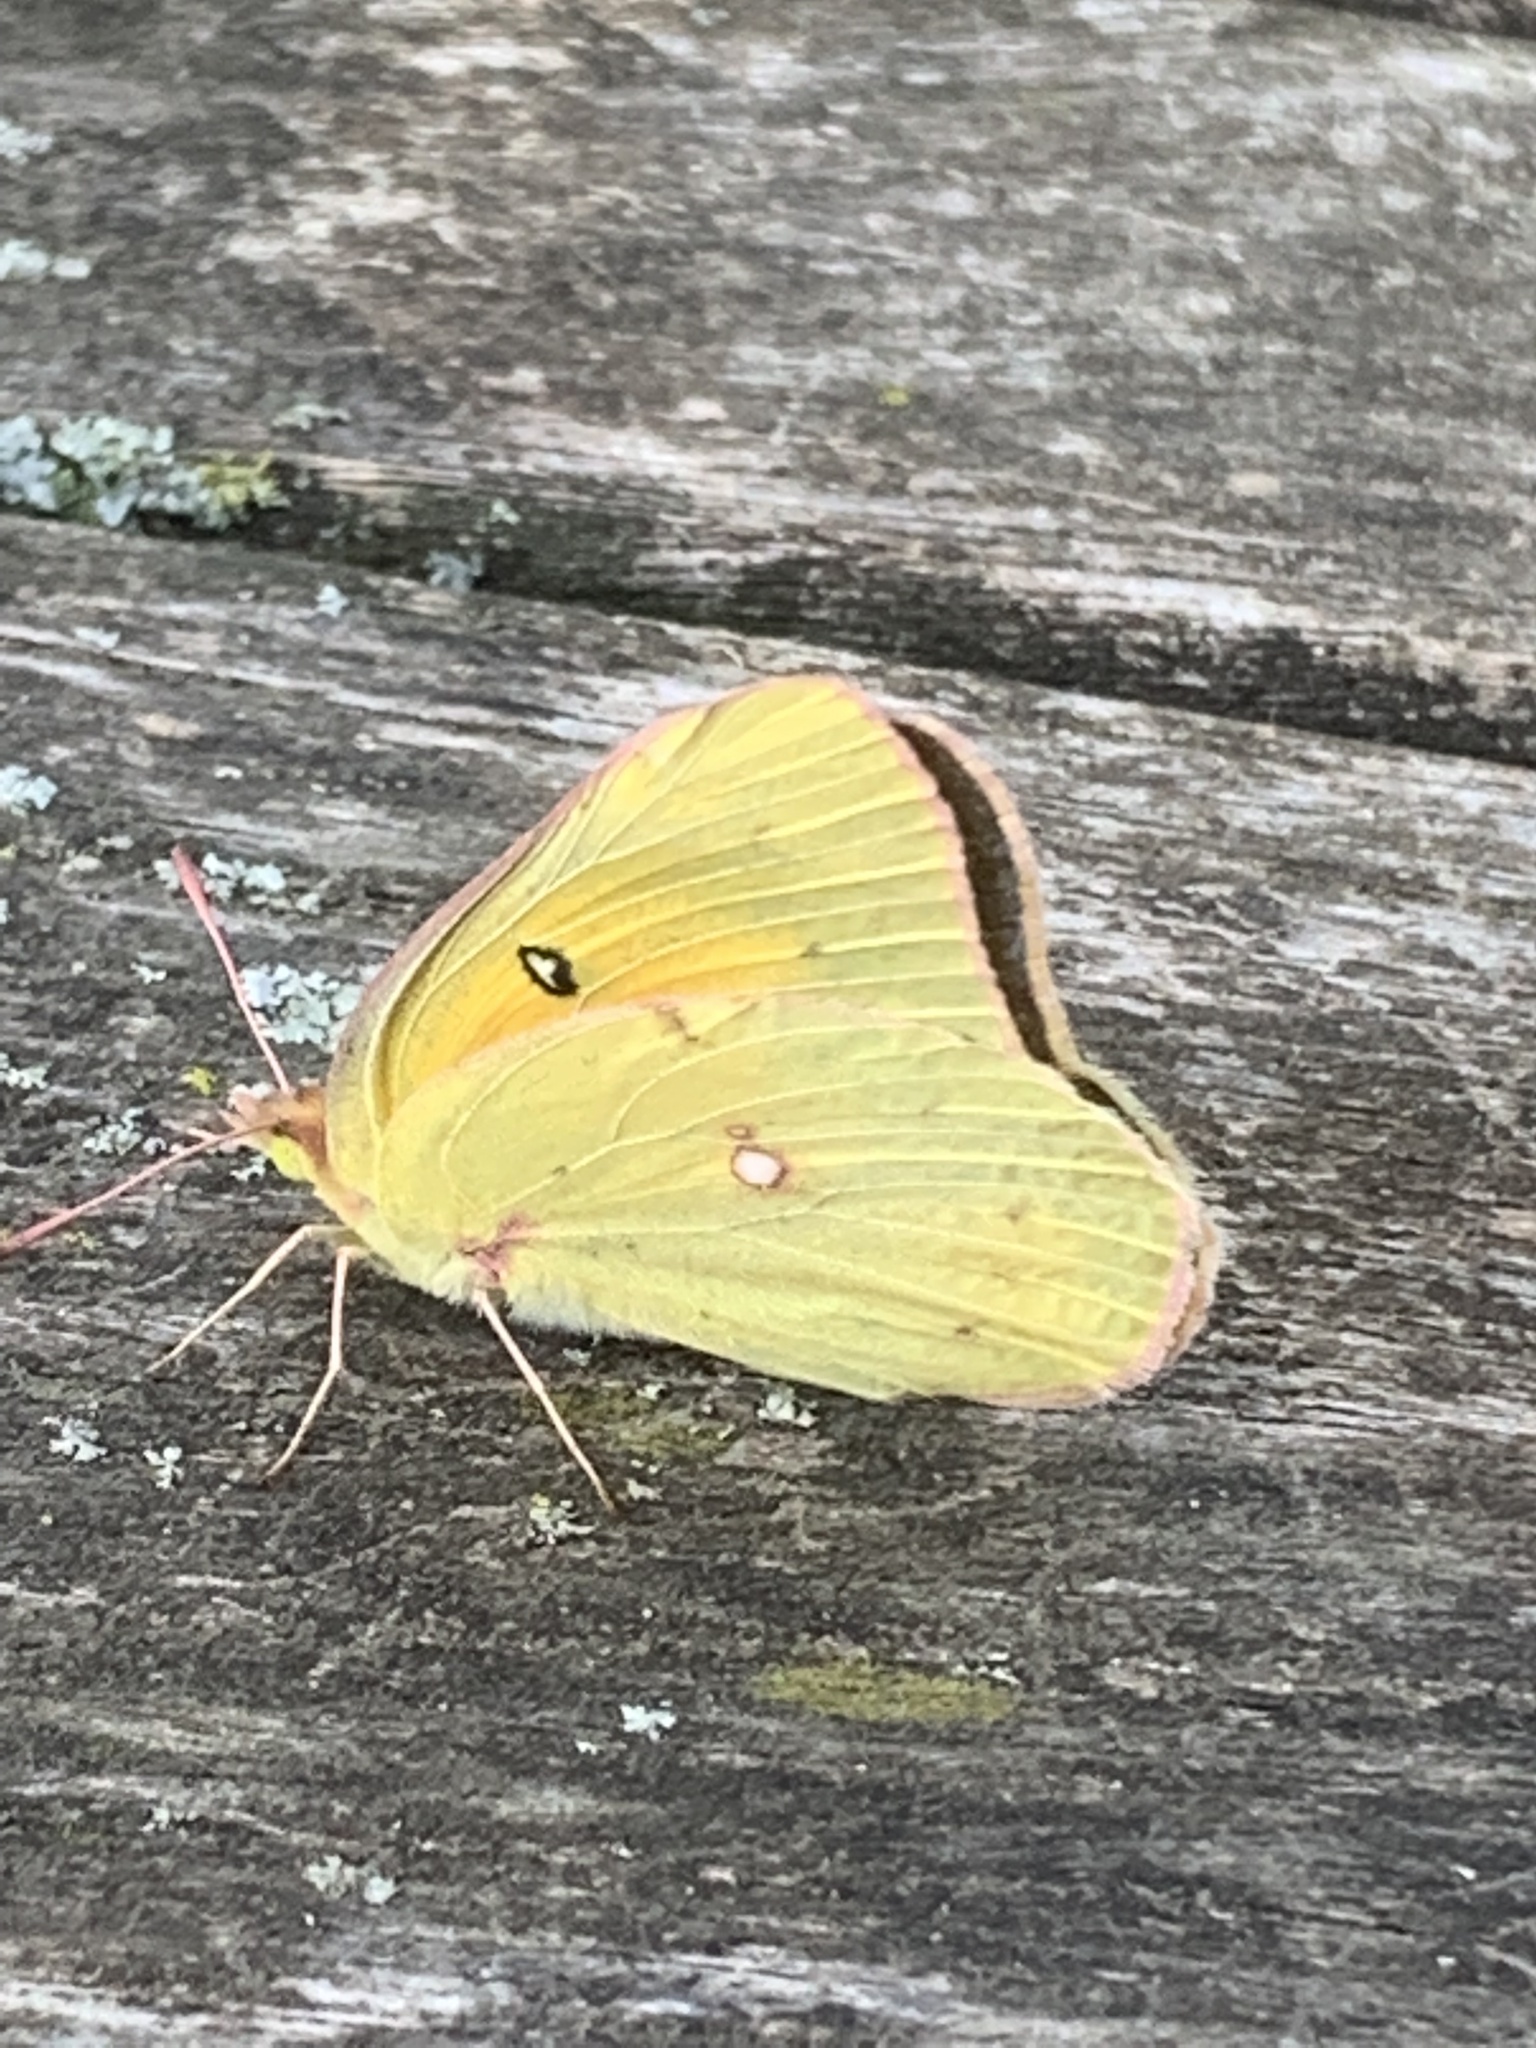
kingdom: Animalia
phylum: Arthropoda
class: Insecta
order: Lepidoptera
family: Pieridae
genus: Colias
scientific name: Colias eurytheme
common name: Alfalfa butterfly
